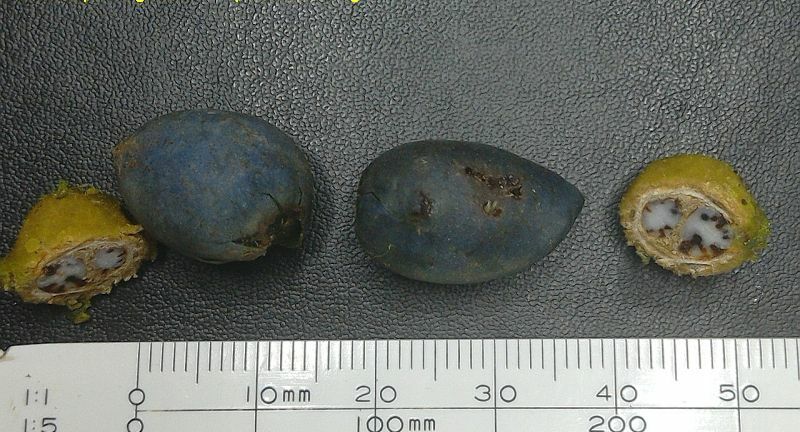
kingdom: Plantae
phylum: Tracheophyta
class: Magnoliopsida
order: Oxalidales
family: Elaeocarpaceae
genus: Elaeocarpus
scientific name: Elaeocarpus grahamii
